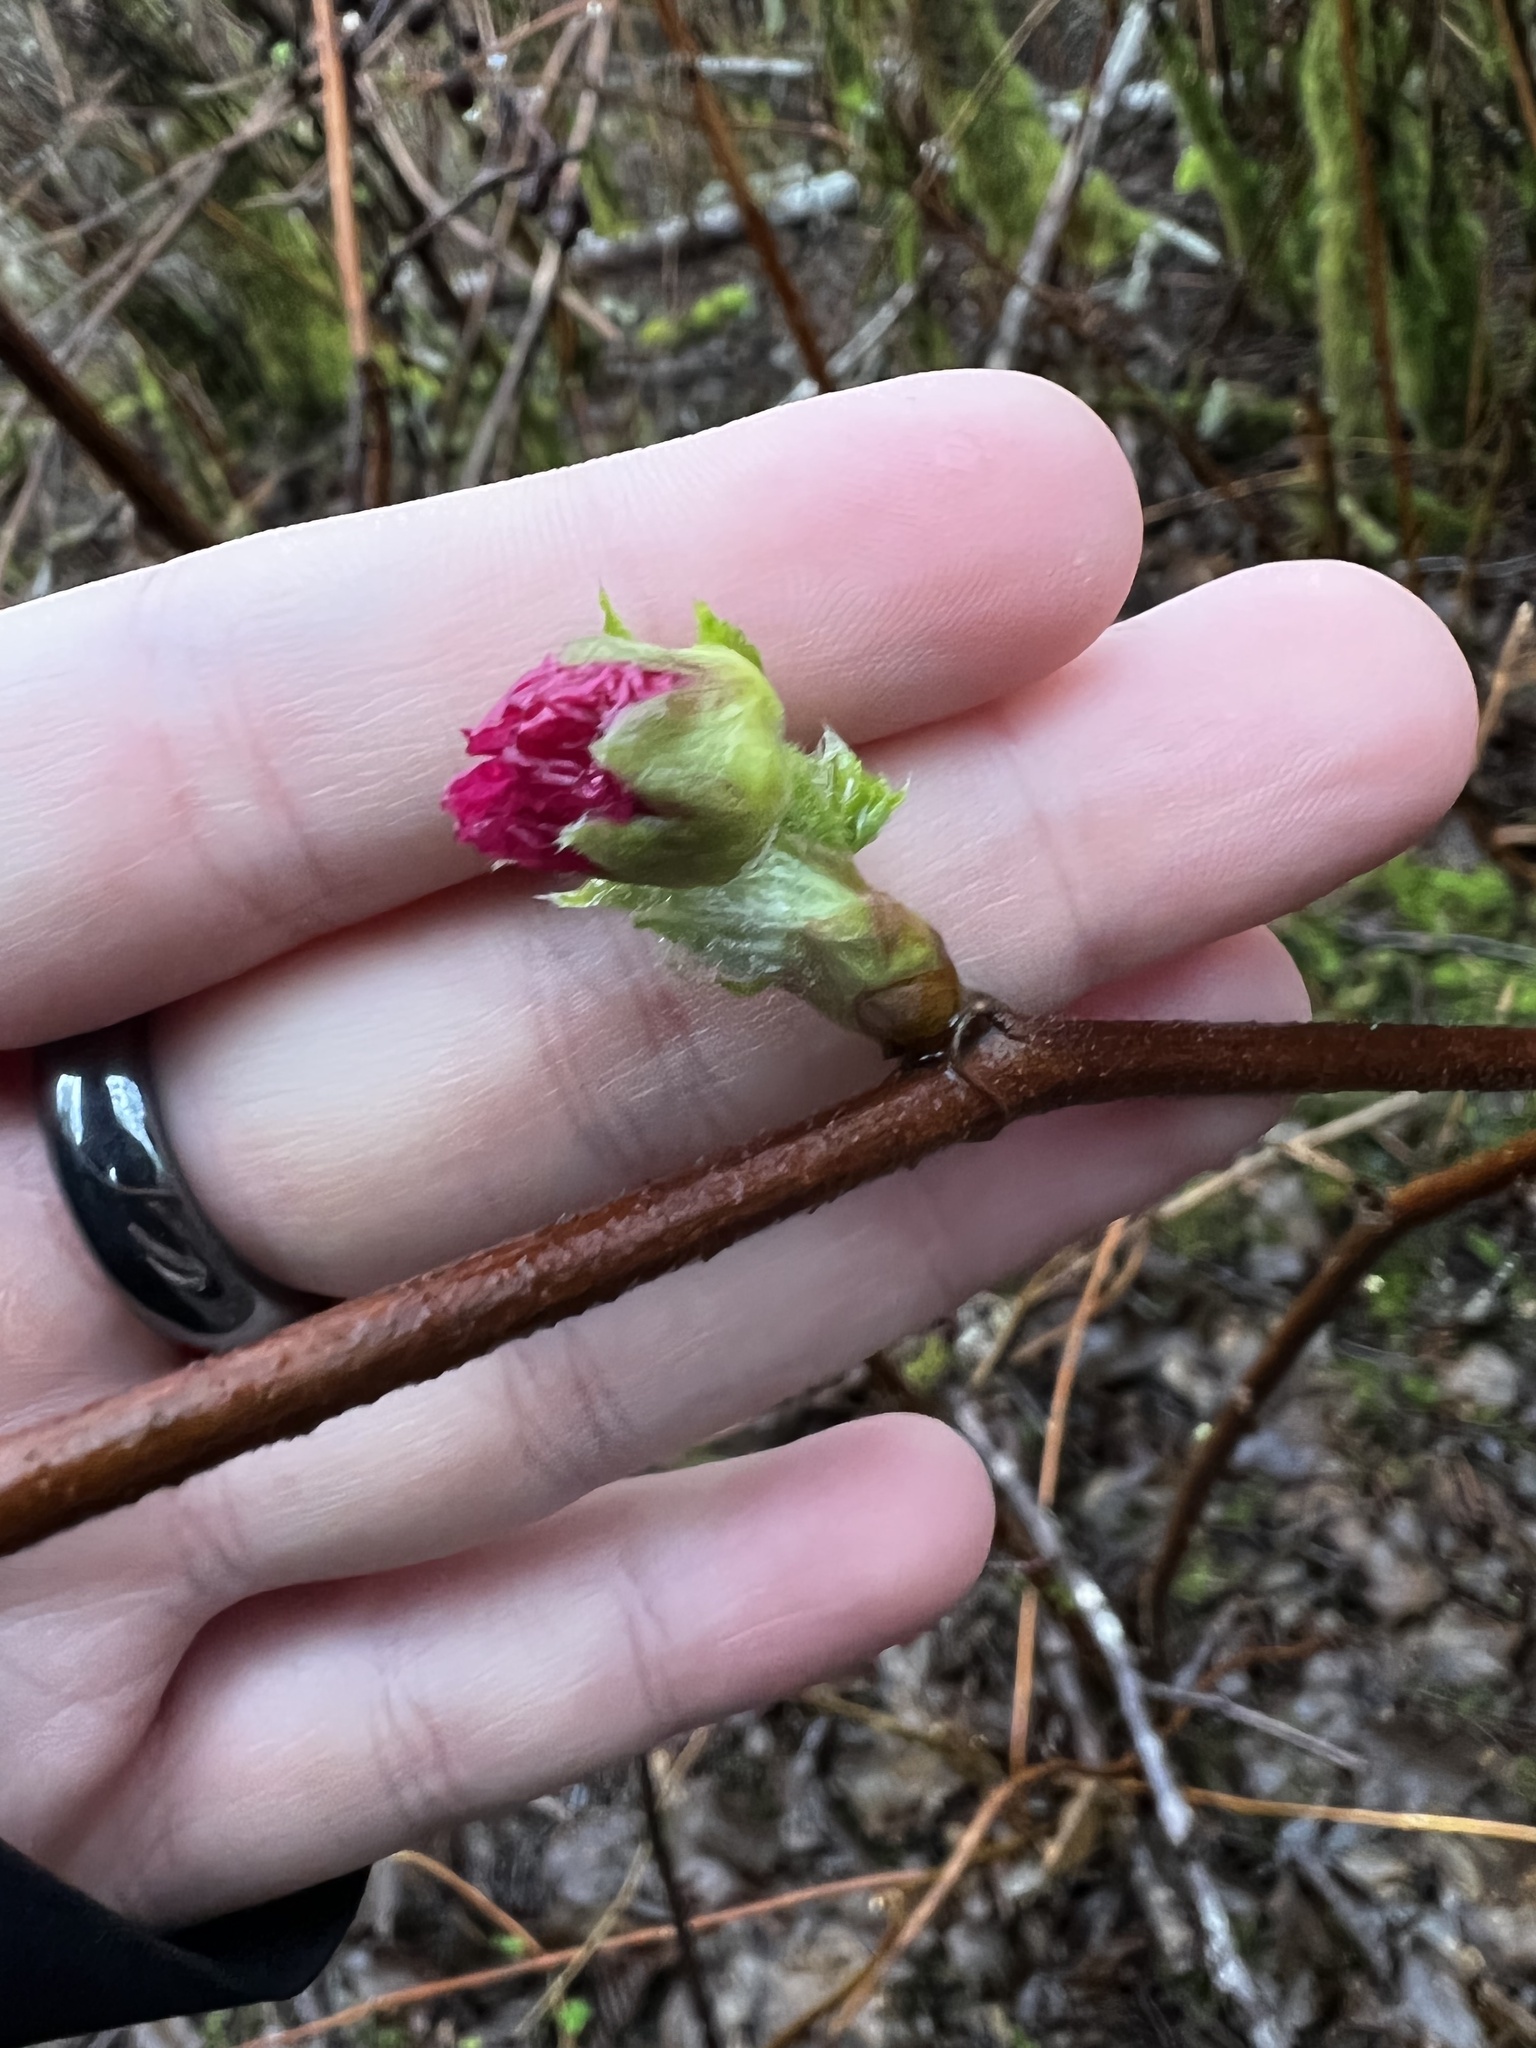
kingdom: Plantae
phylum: Tracheophyta
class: Magnoliopsida
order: Rosales
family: Rosaceae
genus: Rubus
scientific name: Rubus spectabilis
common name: Salmonberry
